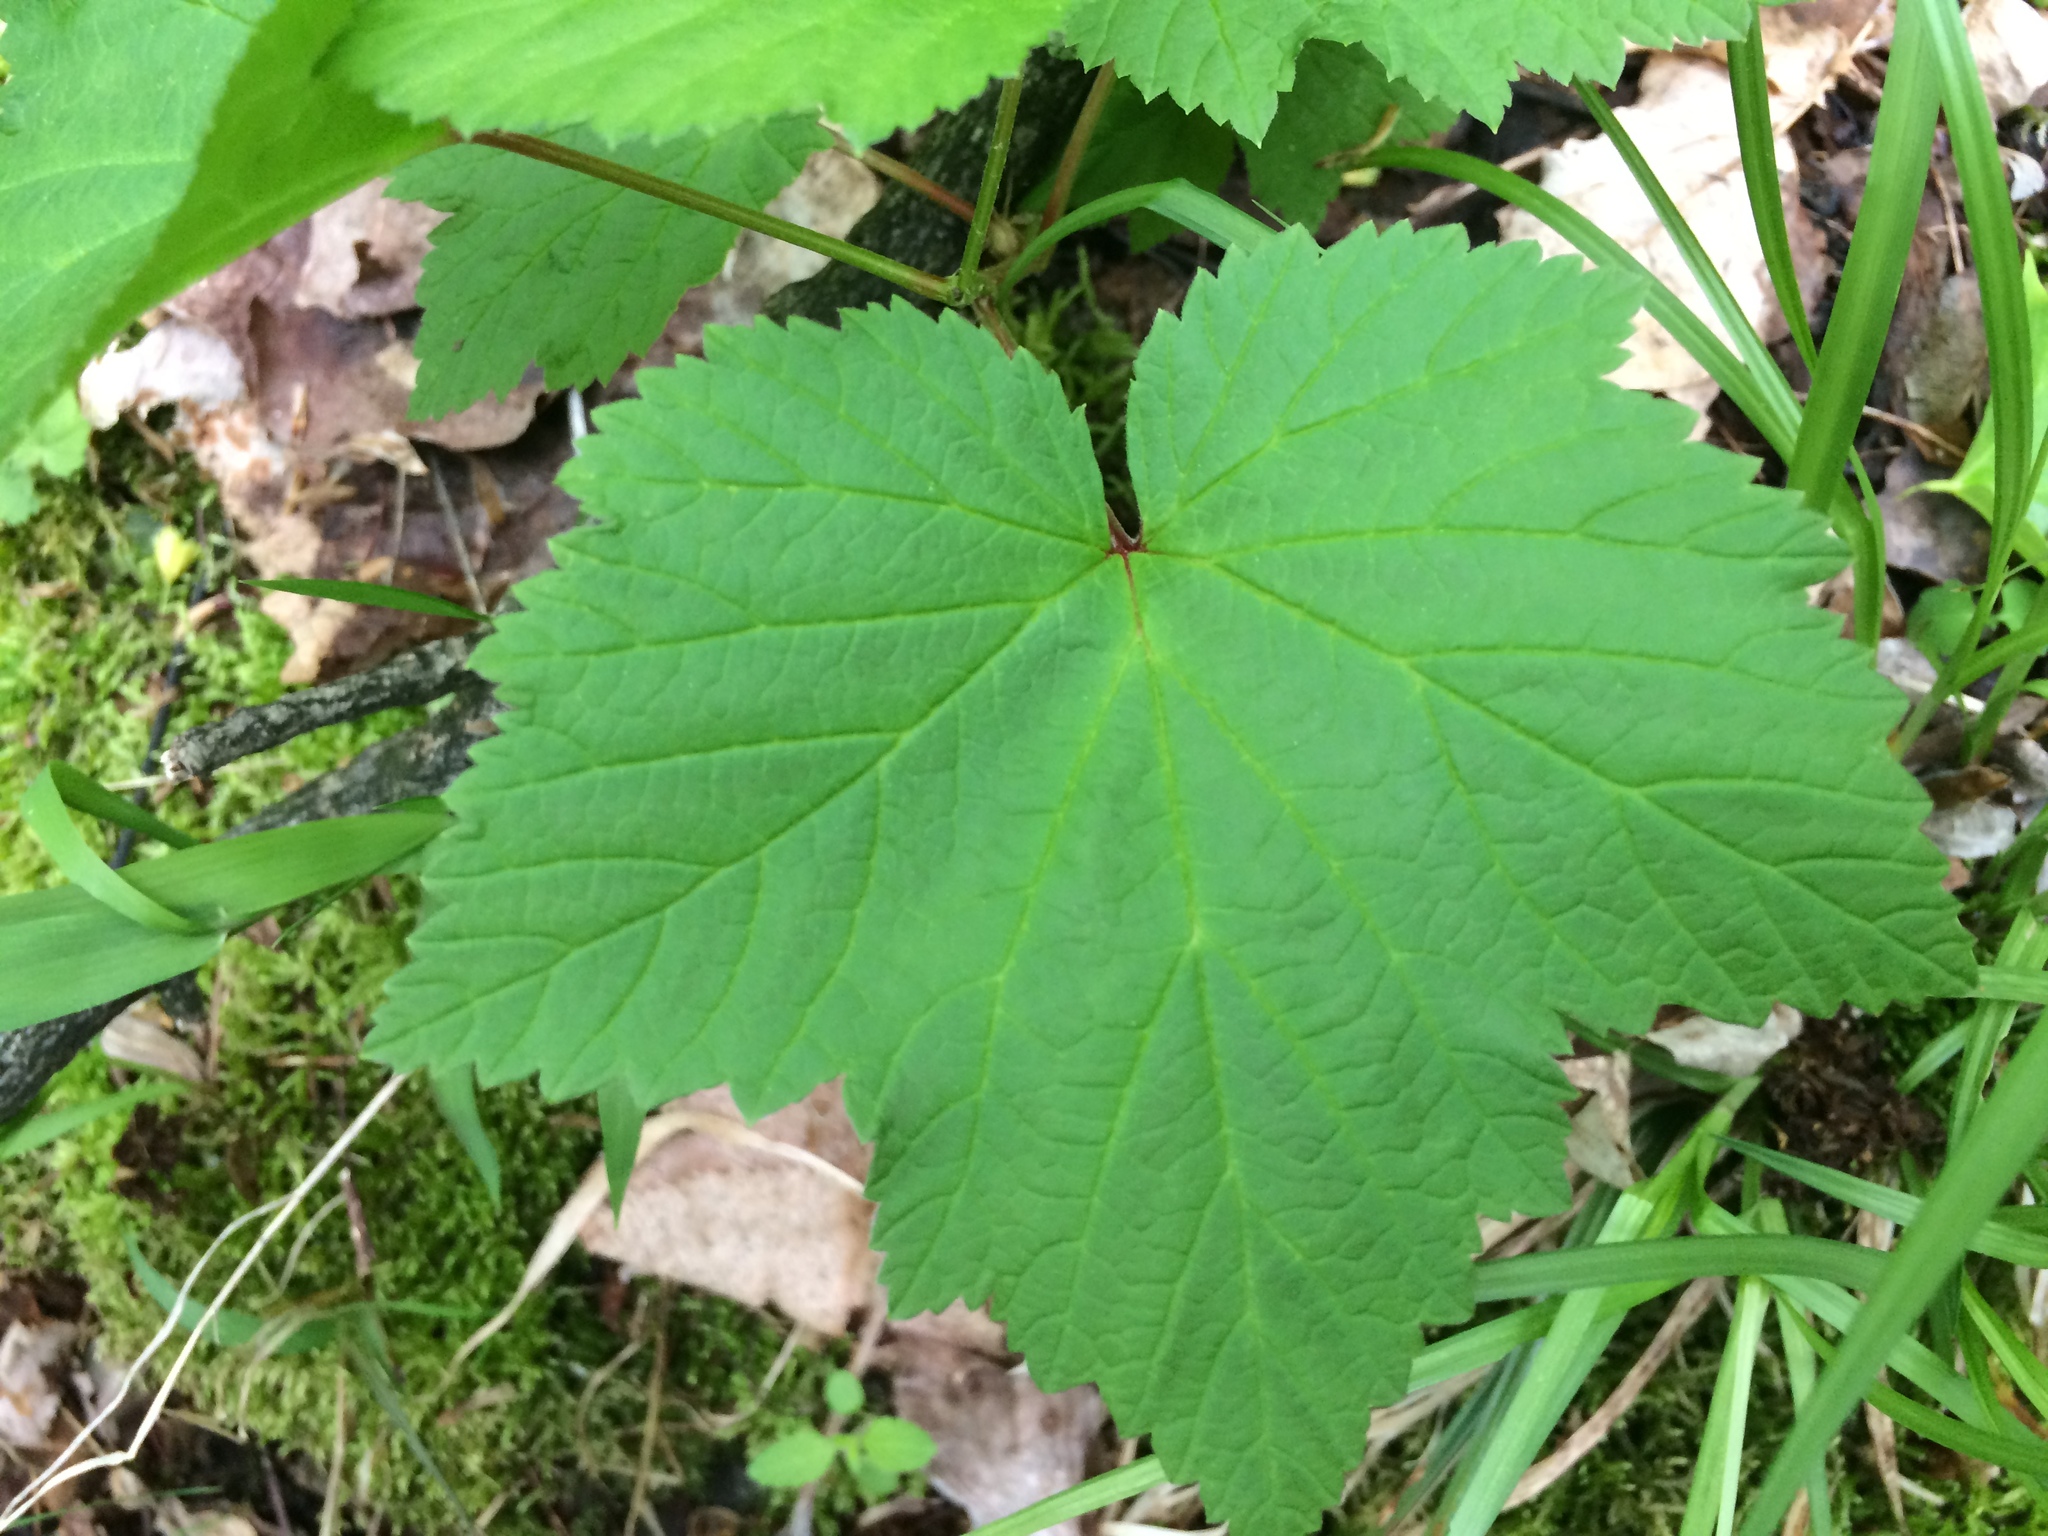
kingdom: Plantae
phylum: Tracheophyta
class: Magnoliopsida
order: Saxifragales
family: Grossulariaceae
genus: Ribes
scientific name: Ribes triste
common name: Swamp red currant
